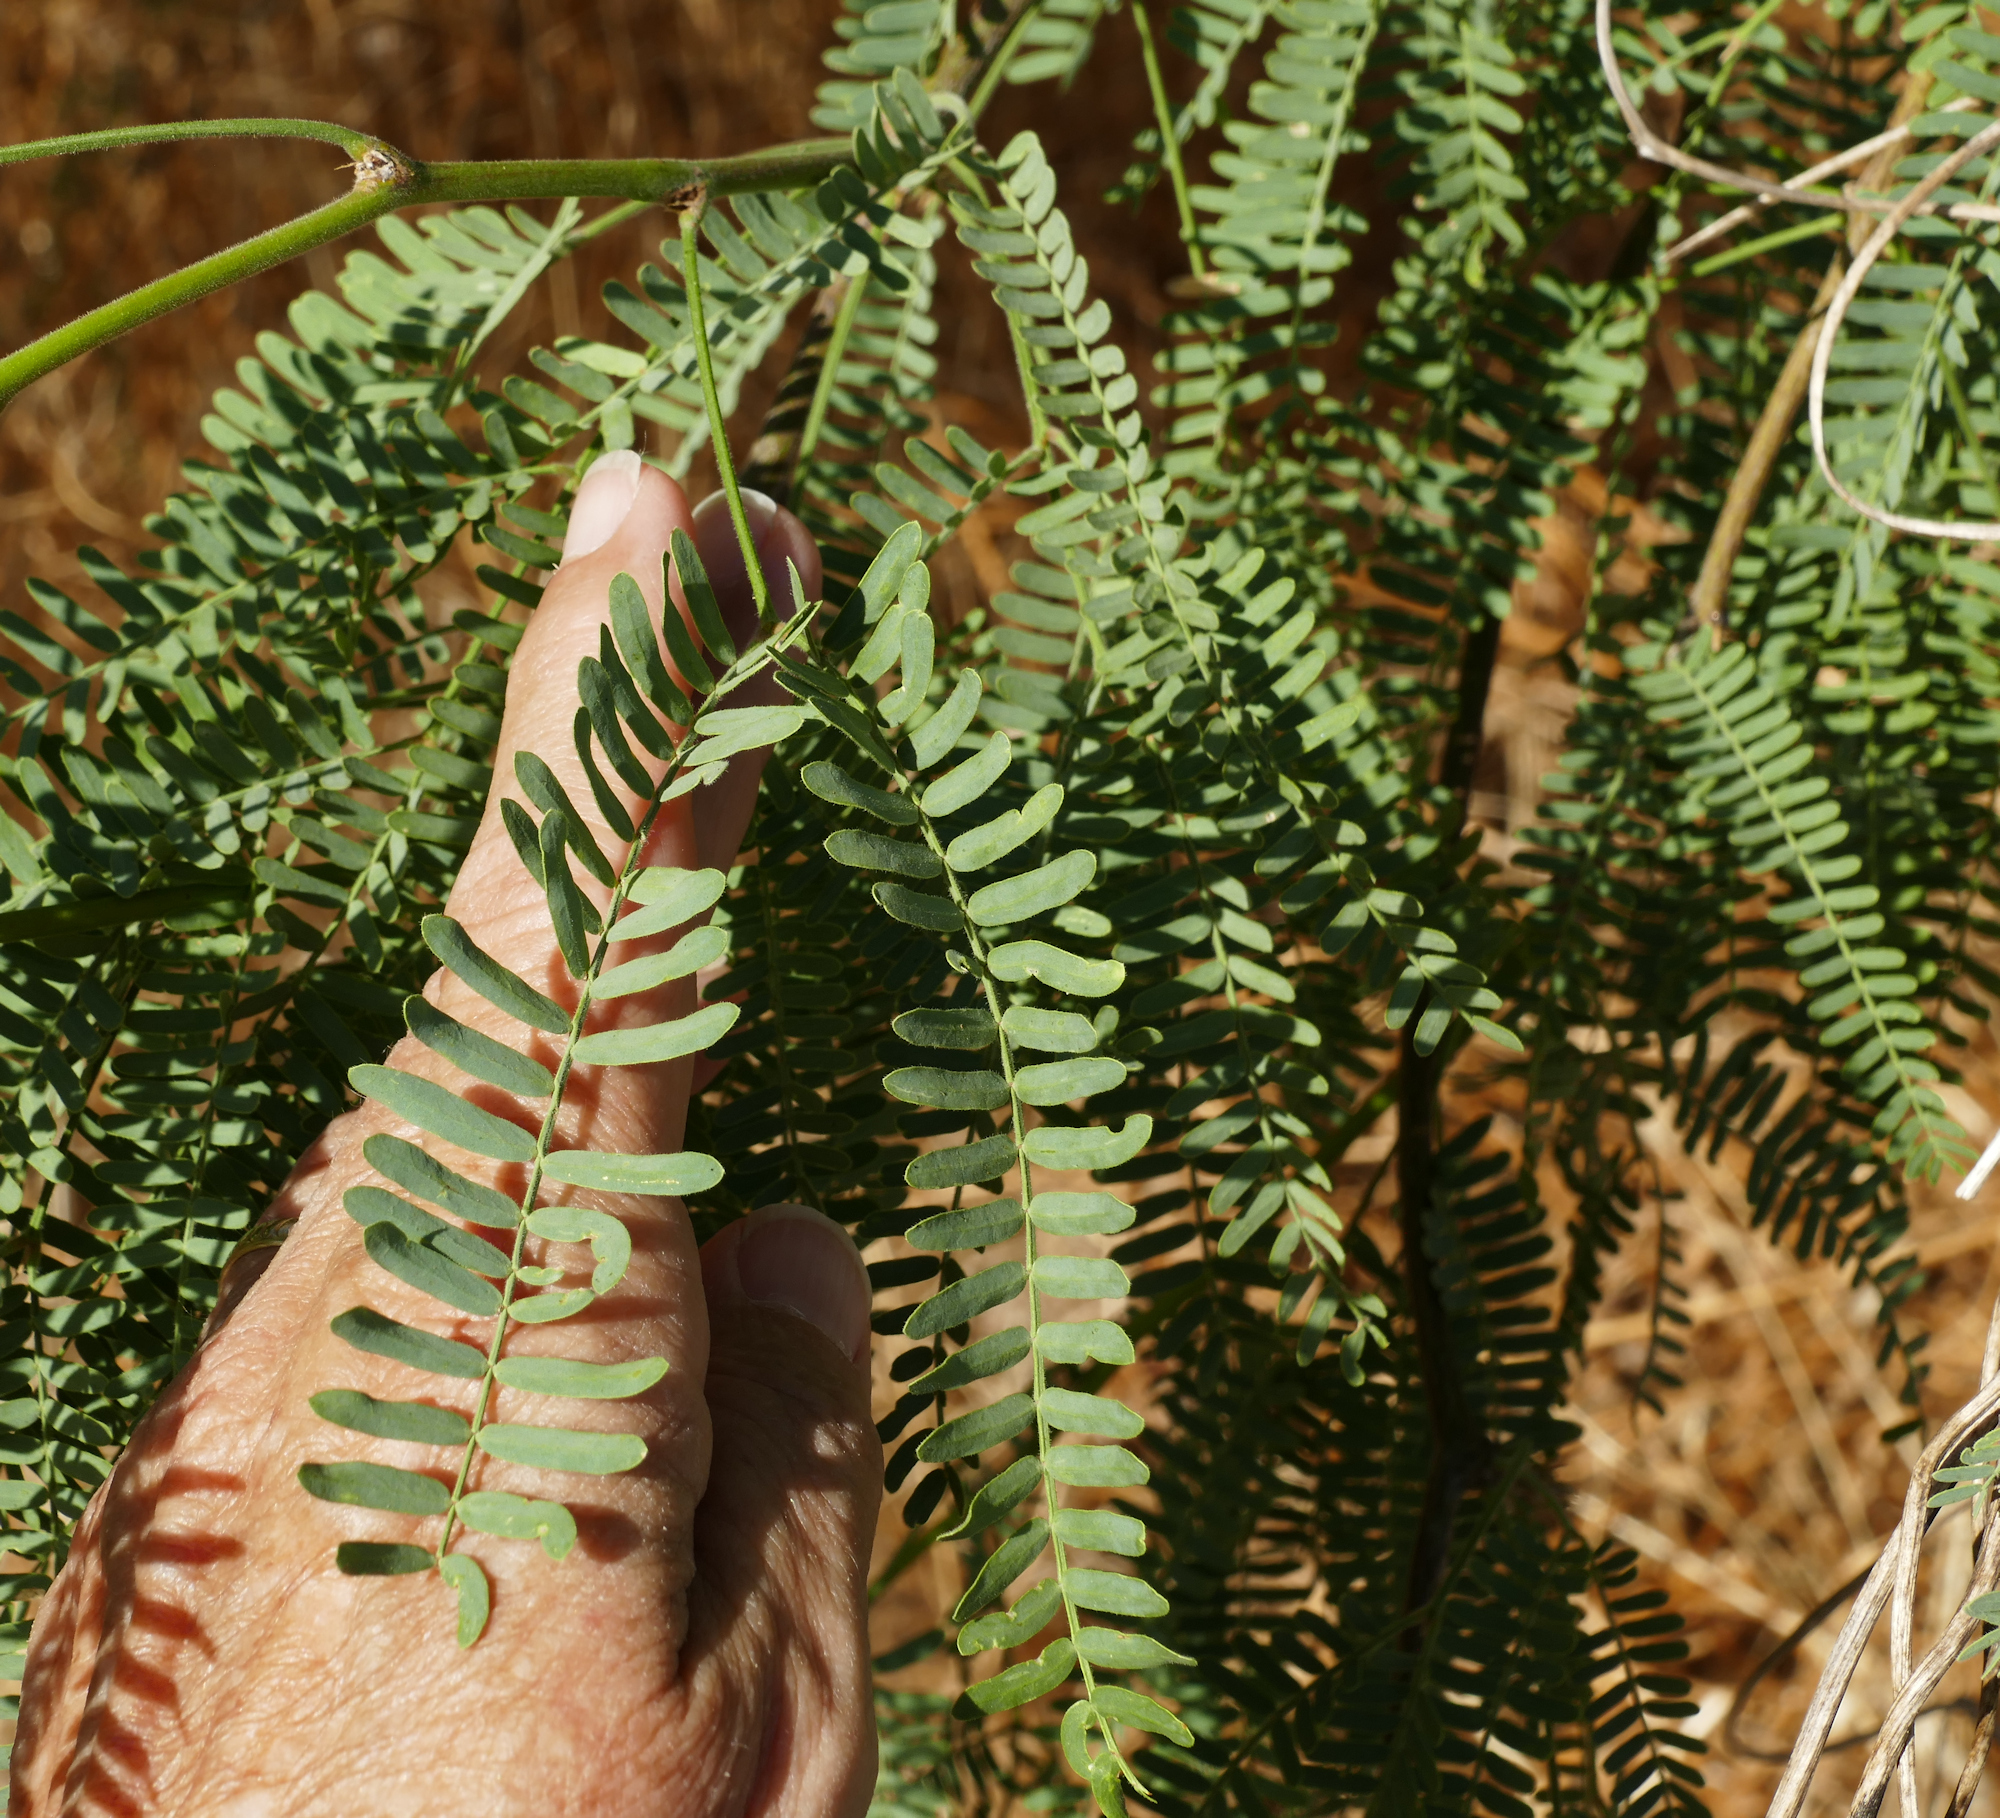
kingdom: Plantae
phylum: Tracheophyta
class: Magnoliopsida
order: Fabales
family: Fabaceae
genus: Prosopis
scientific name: Prosopis velutina
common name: Velvet mesquite
